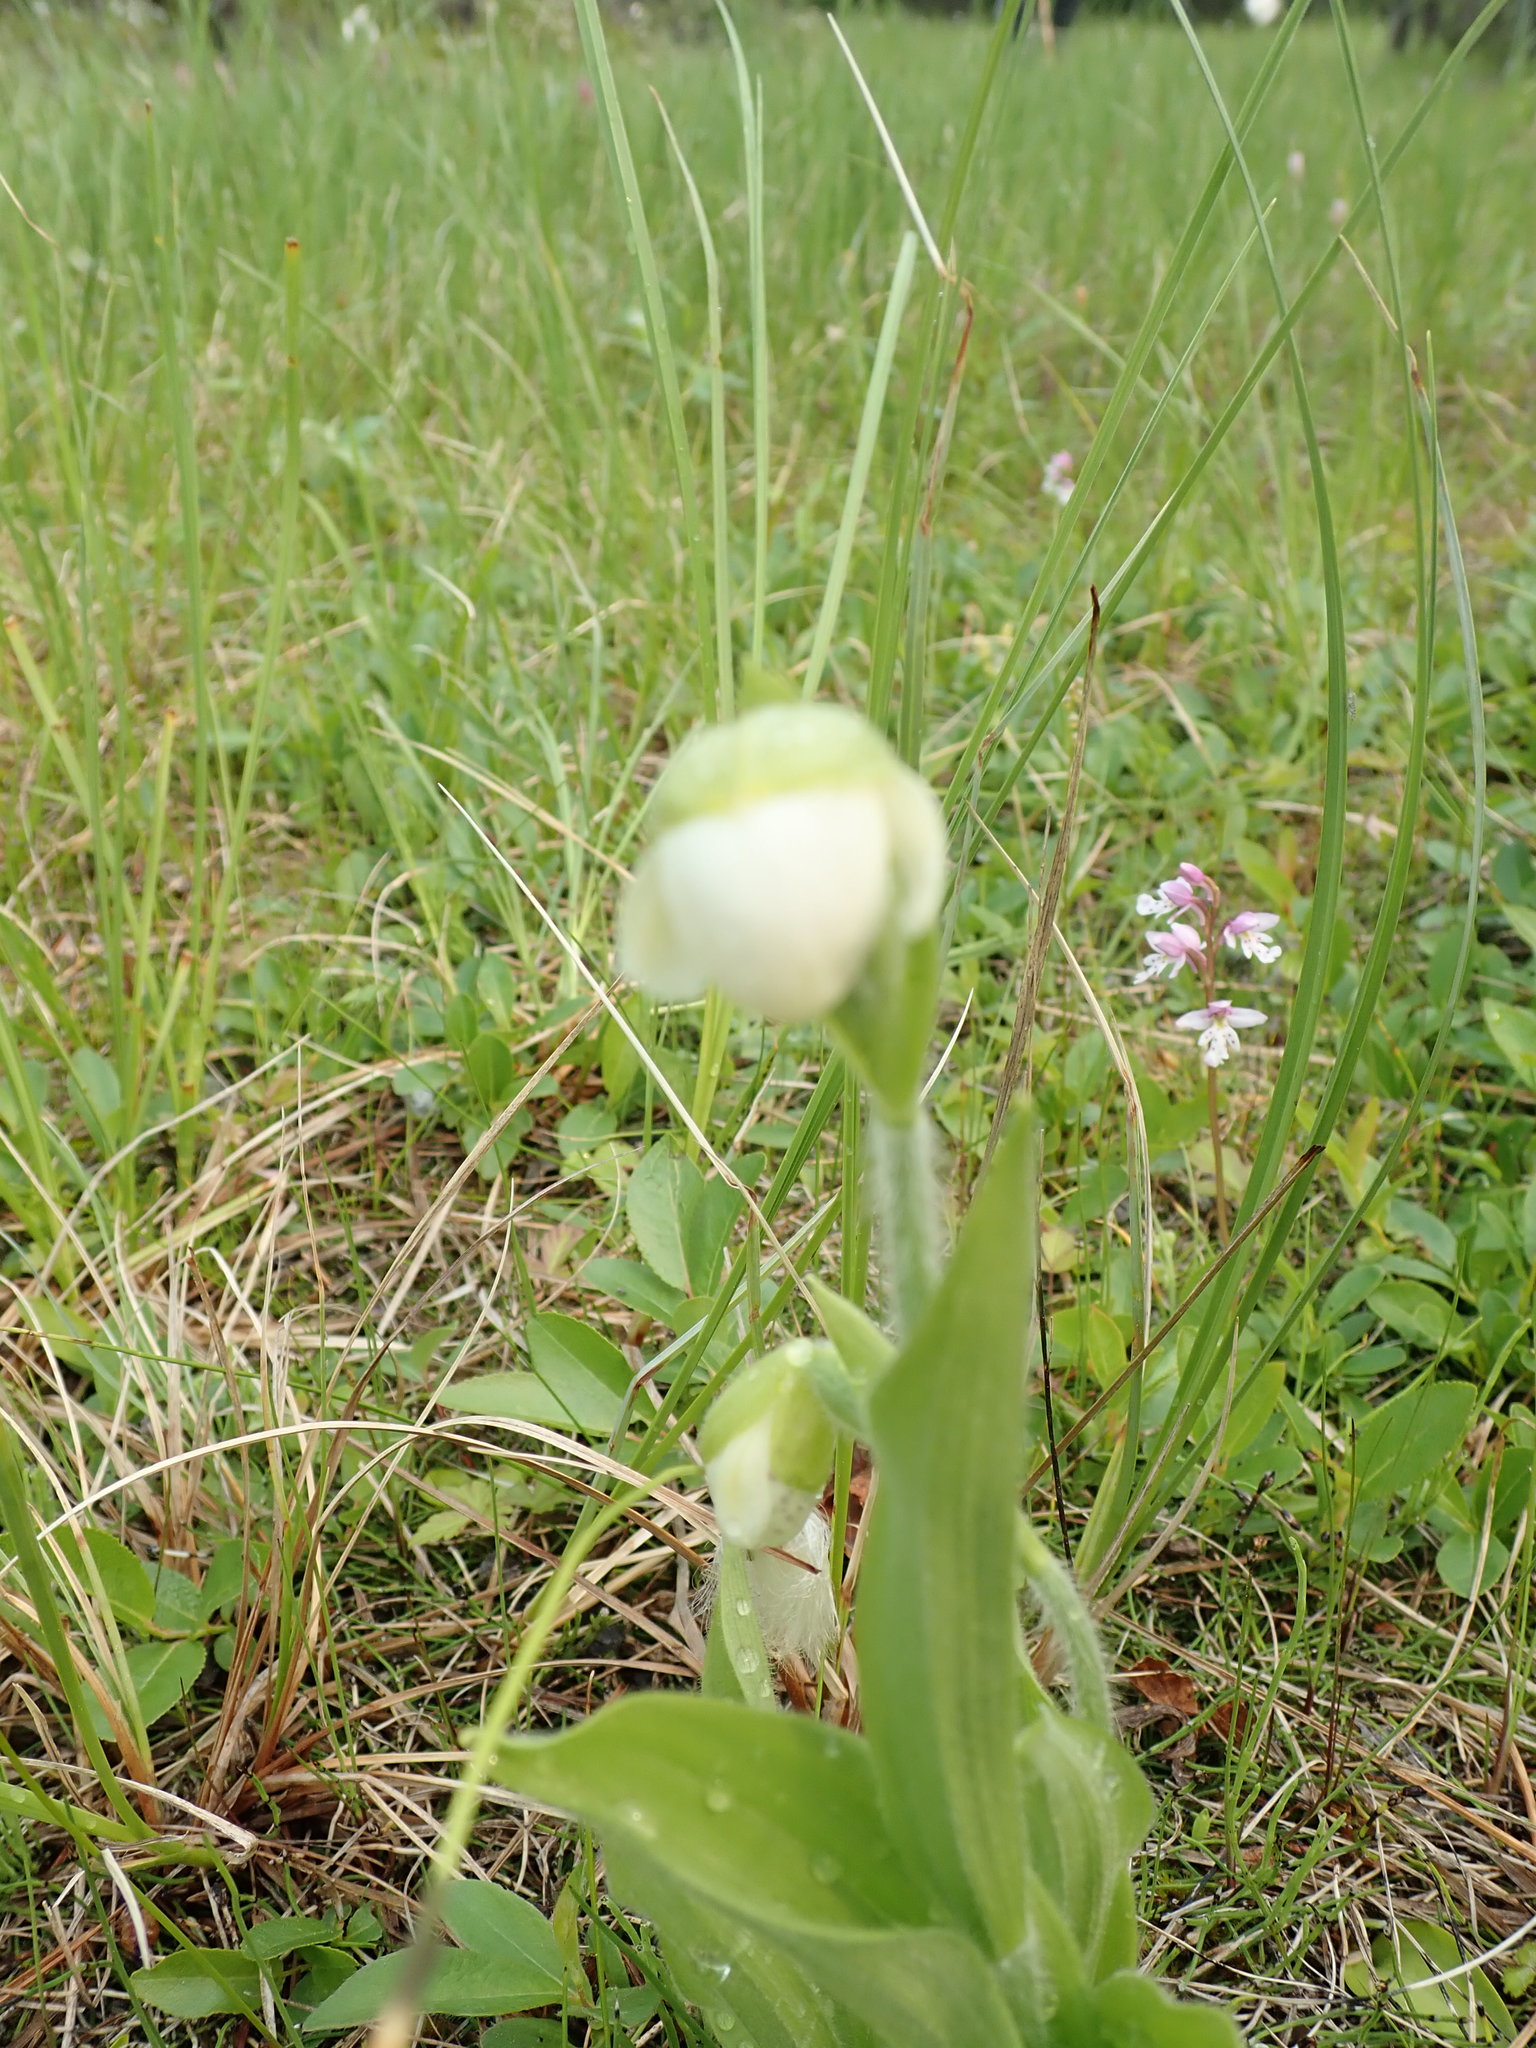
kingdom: Plantae
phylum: Tracheophyta
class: Liliopsida
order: Asparagales
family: Orchidaceae
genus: Cypripedium
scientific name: Cypripedium passerinum
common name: Sparrow's-egg lady's-slipper
